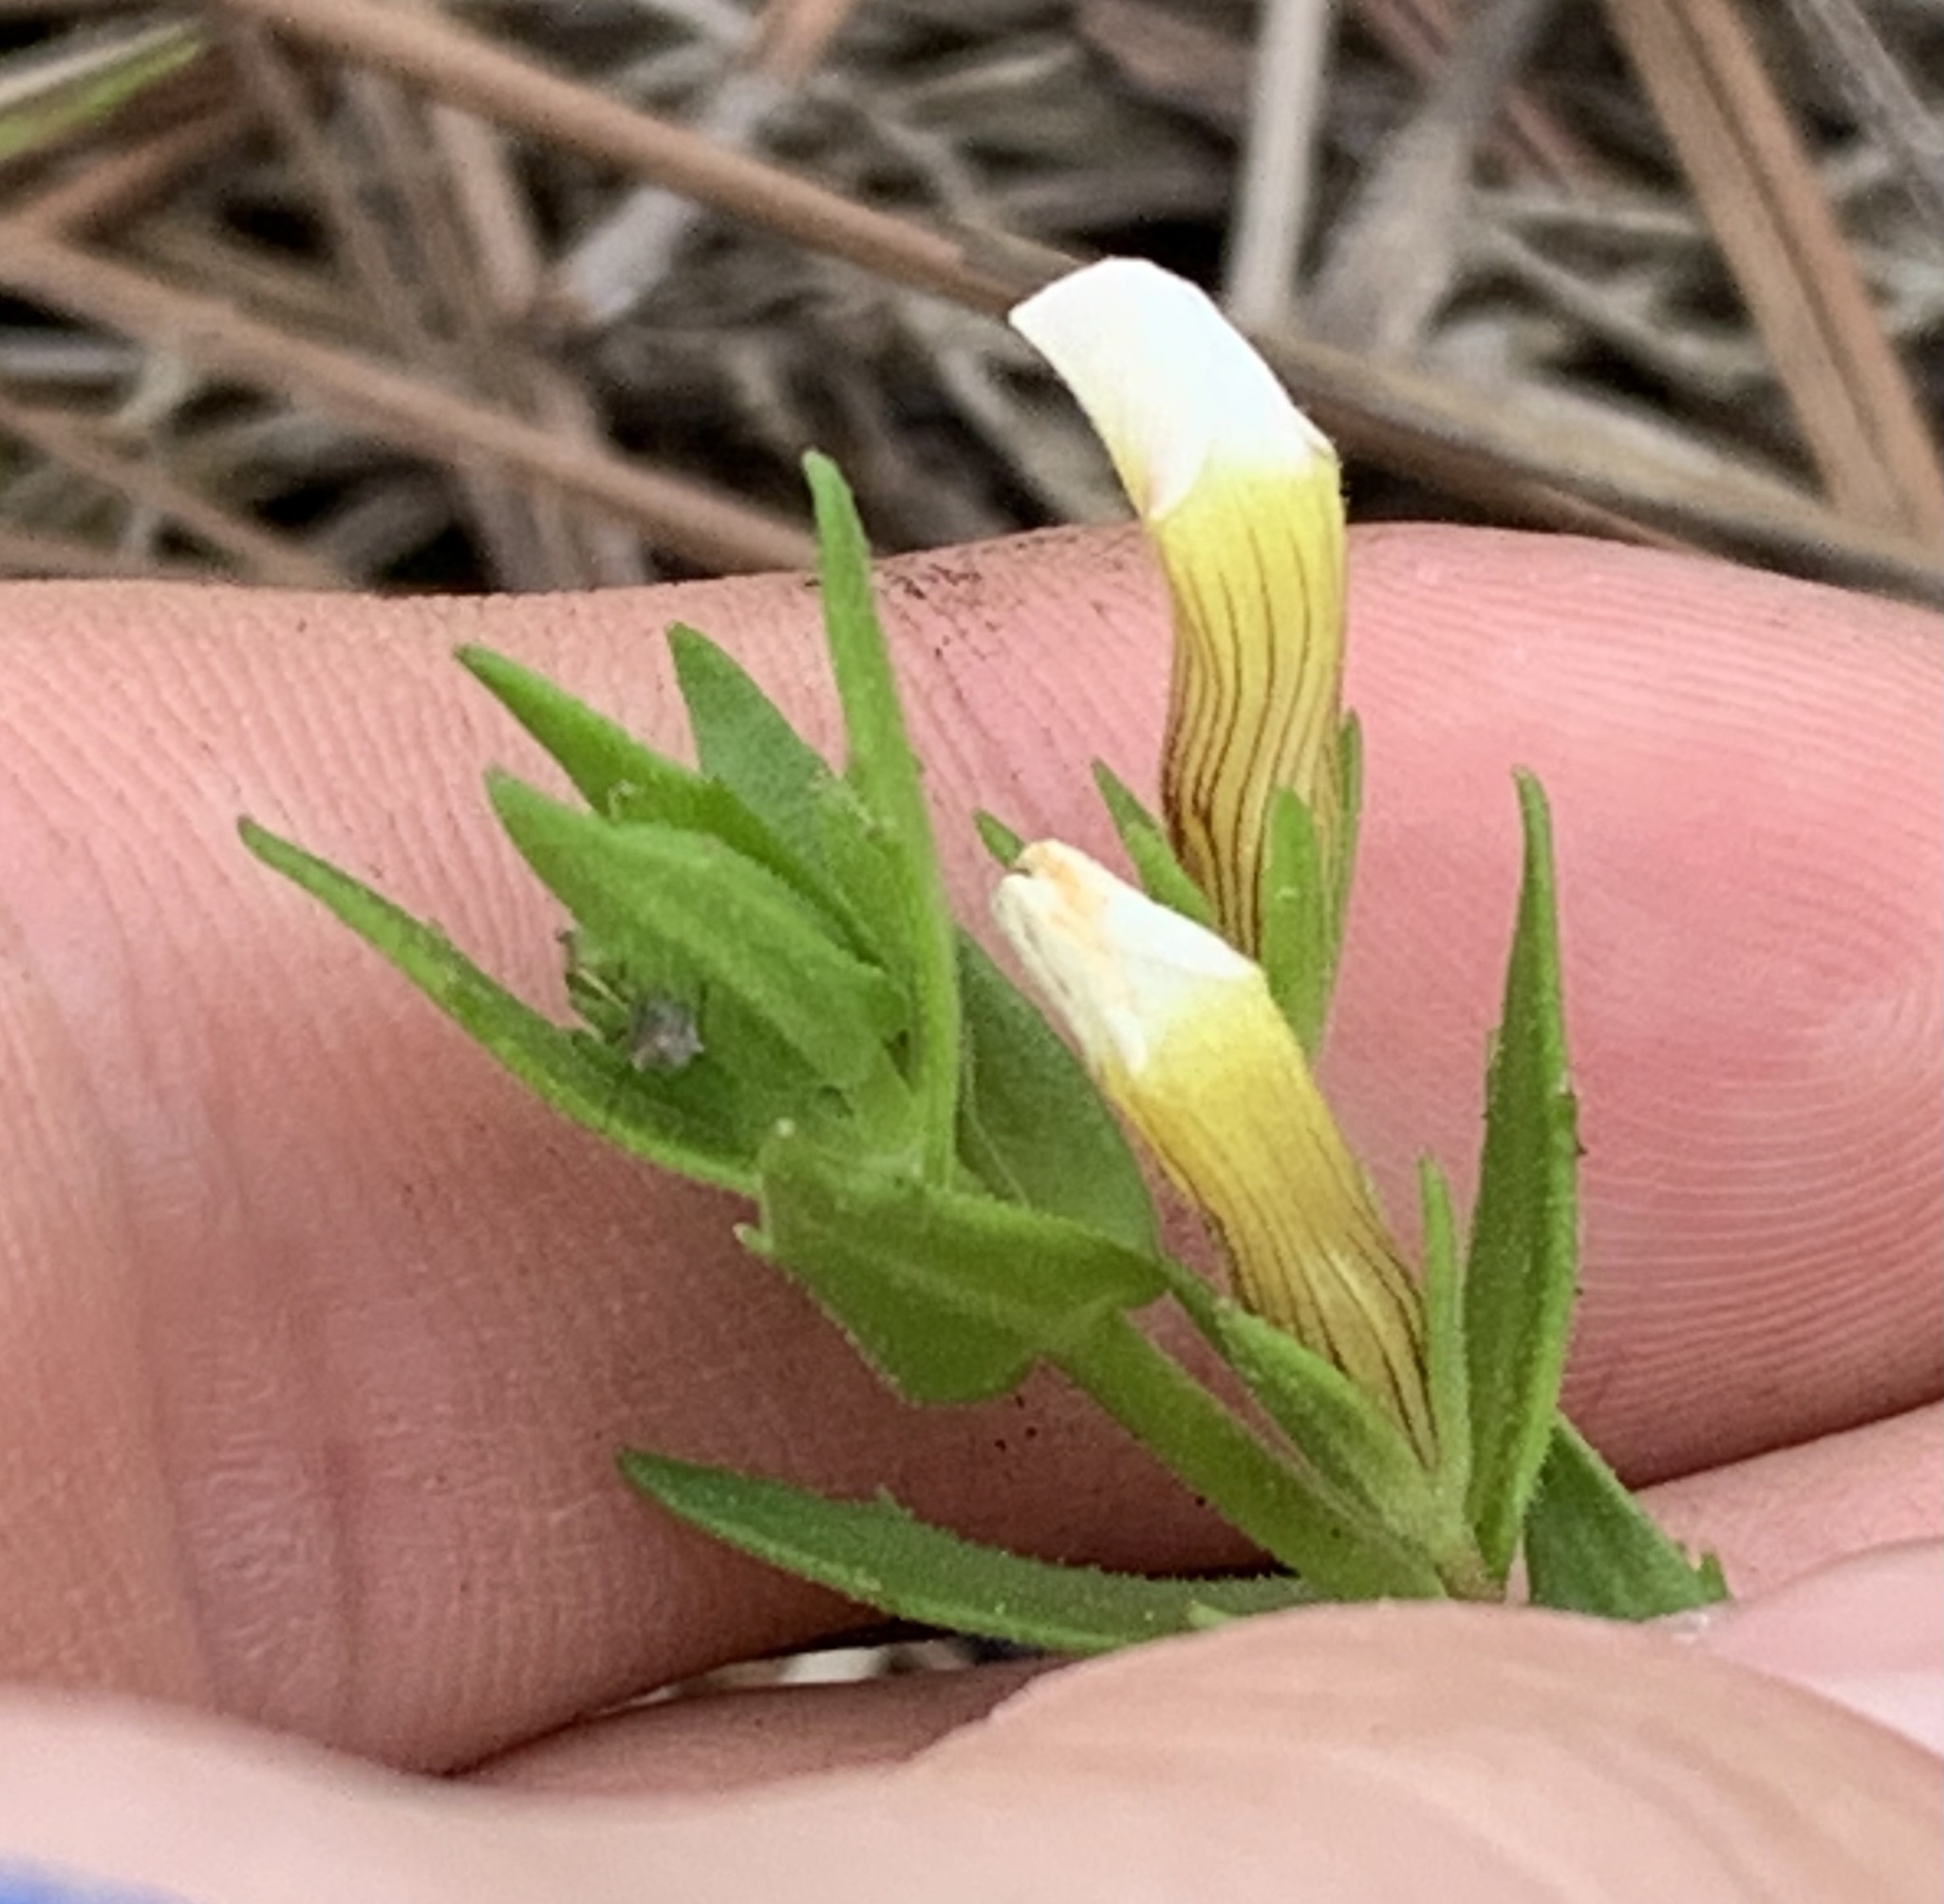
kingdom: Plantae
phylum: Tracheophyta
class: Magnoliopsida
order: Lamiales
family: Plantaginaceae
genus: Gratiola
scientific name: Gratiola ramosa
